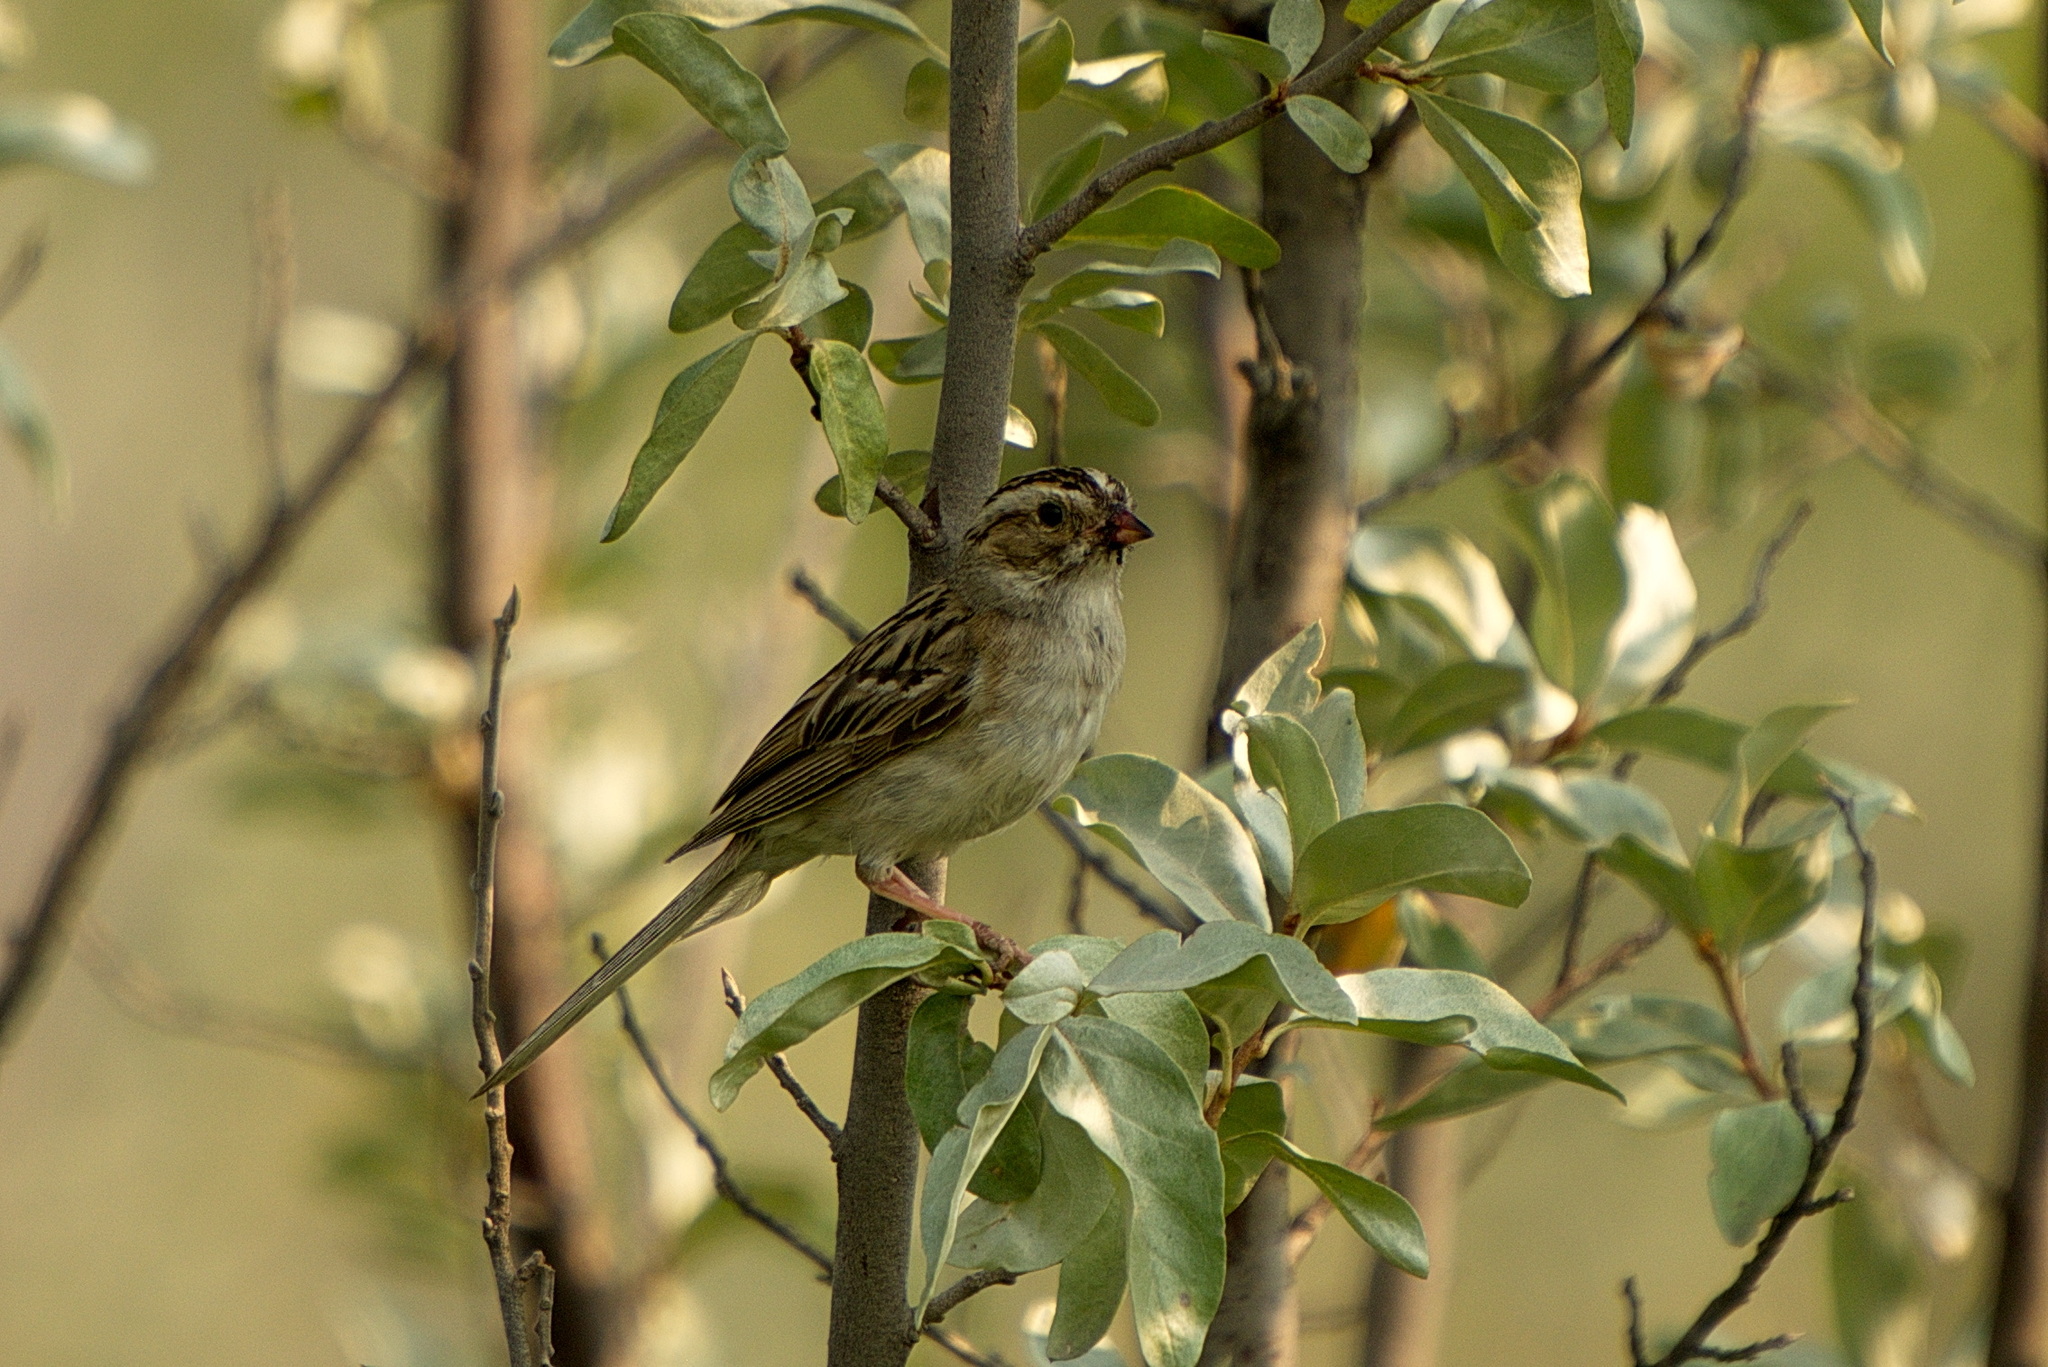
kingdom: Animalia
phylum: Chordata
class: Aves
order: Passeriformes
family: Passerellidae
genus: Spizella
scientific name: Spizella pallida
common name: Clay-colored sparrow
